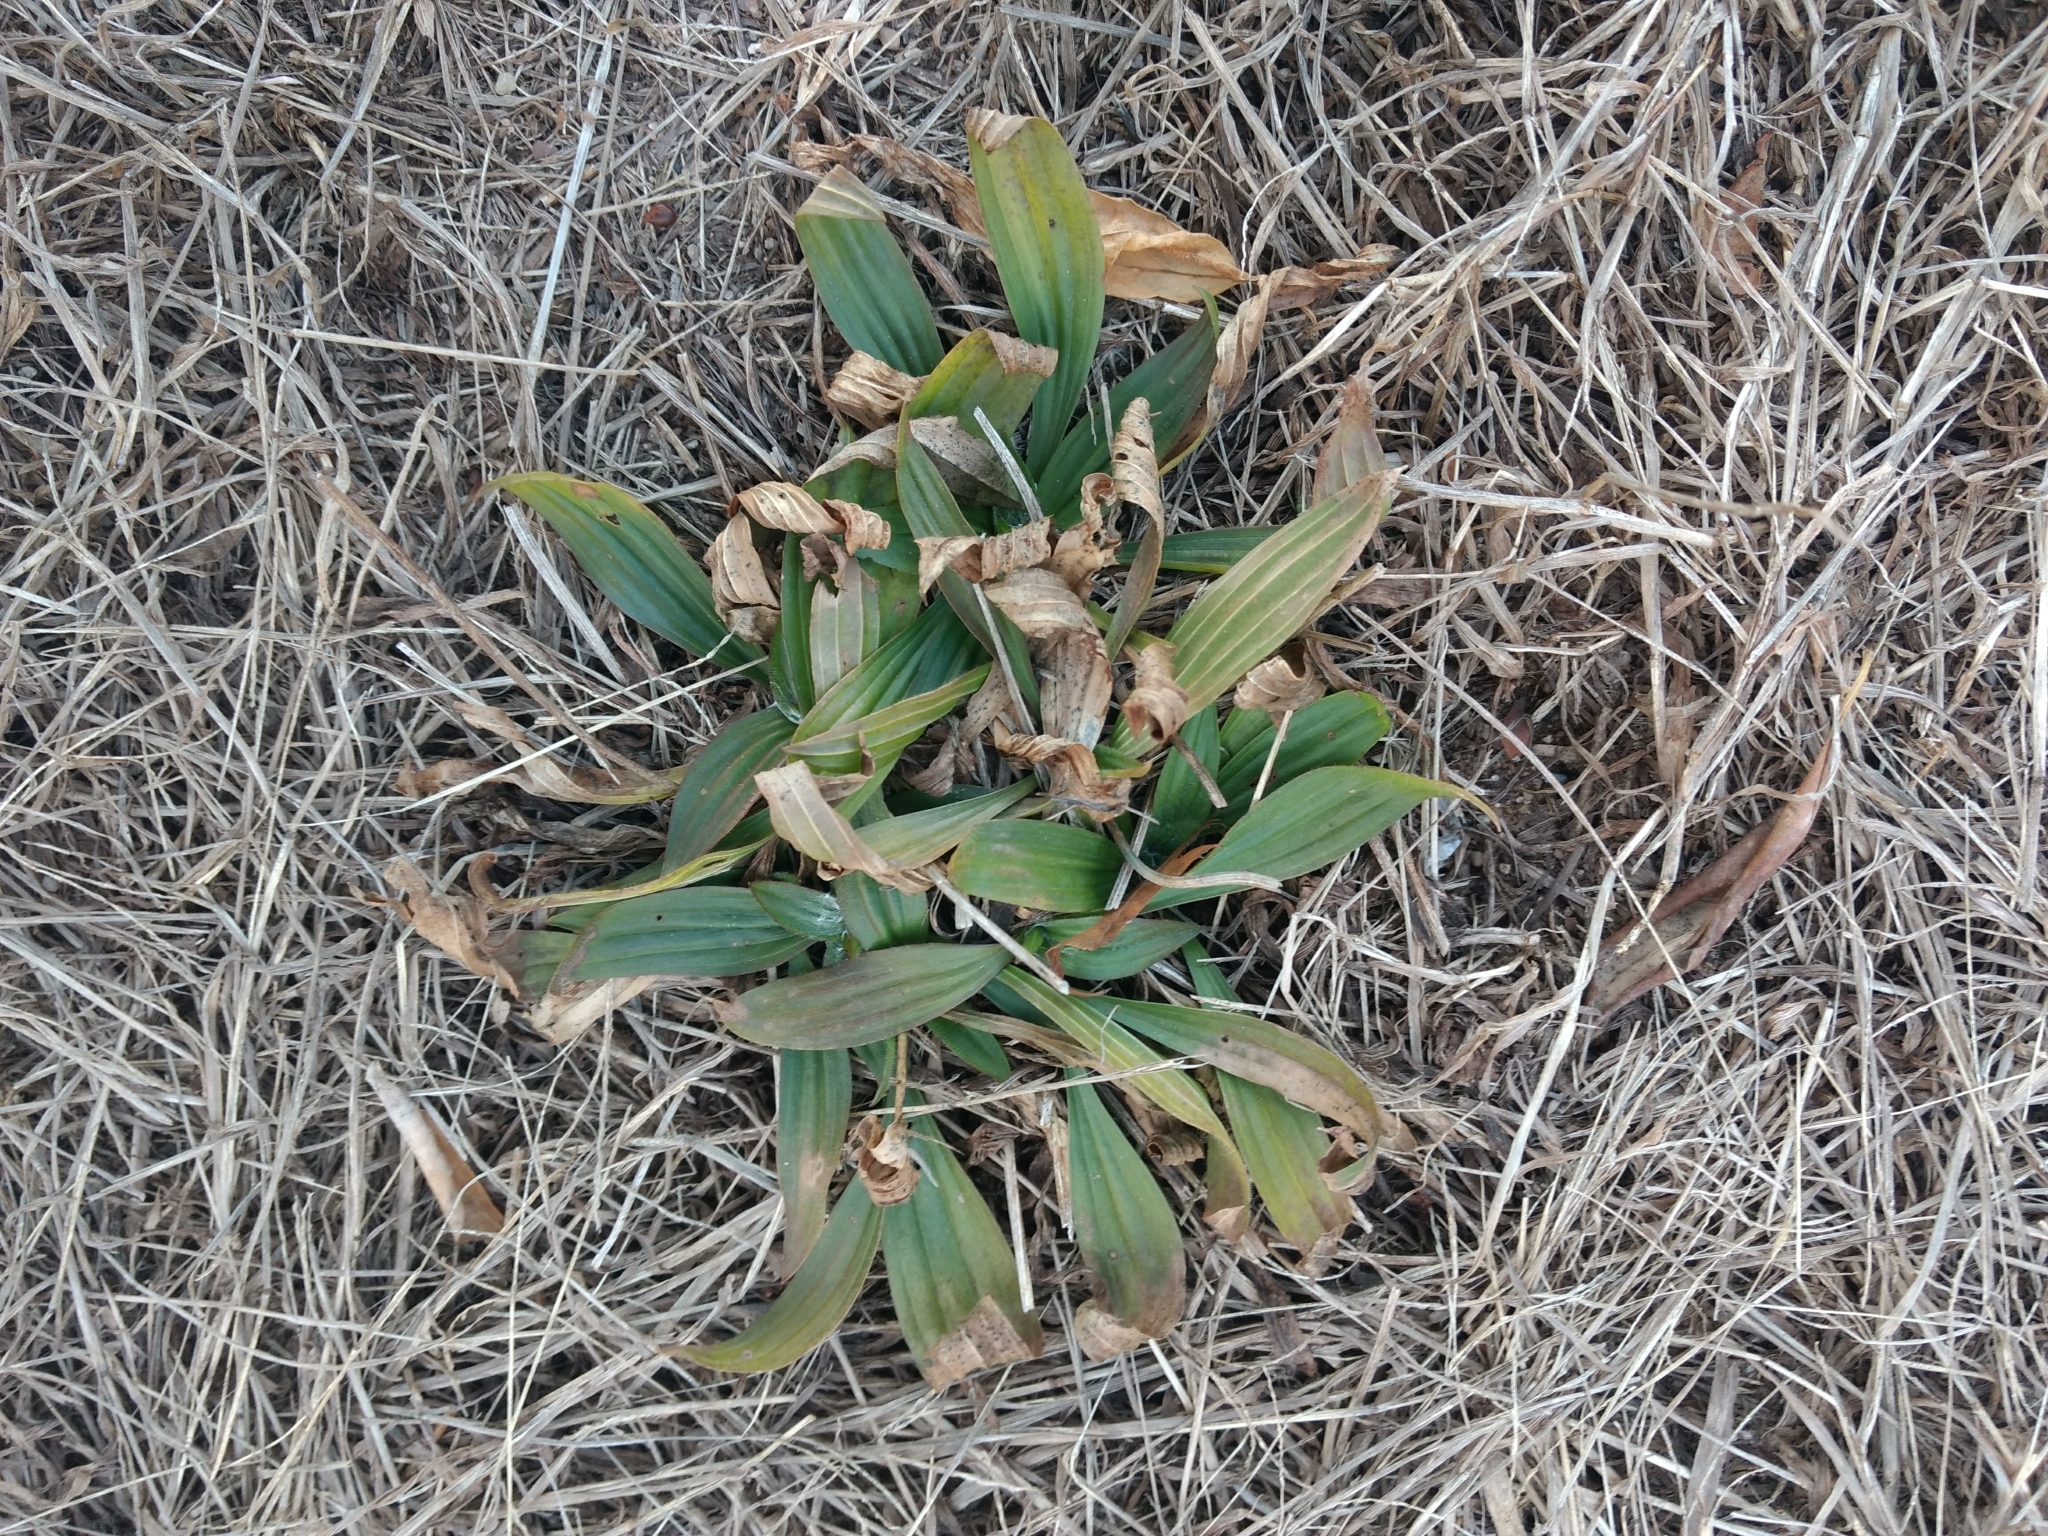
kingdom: Plantae
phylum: Tracheophyta
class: Magnoliopsida
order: Lamiales
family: Plantaginaceae
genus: Plantago
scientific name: Plantago lanceolata
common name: Ribwort plantain
